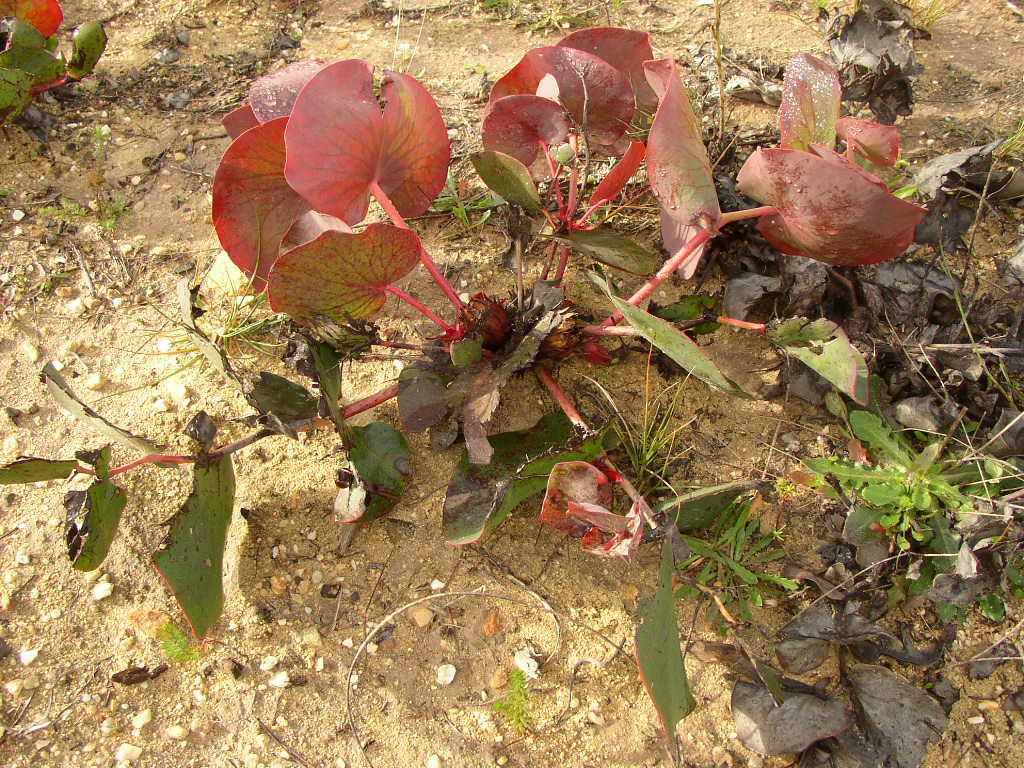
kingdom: Plantae
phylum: Tracheophyta
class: Magnoliopsida
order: Proteales
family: Proteaceae
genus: Protea
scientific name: Protea cordata
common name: Heart-leaf sugarbush
